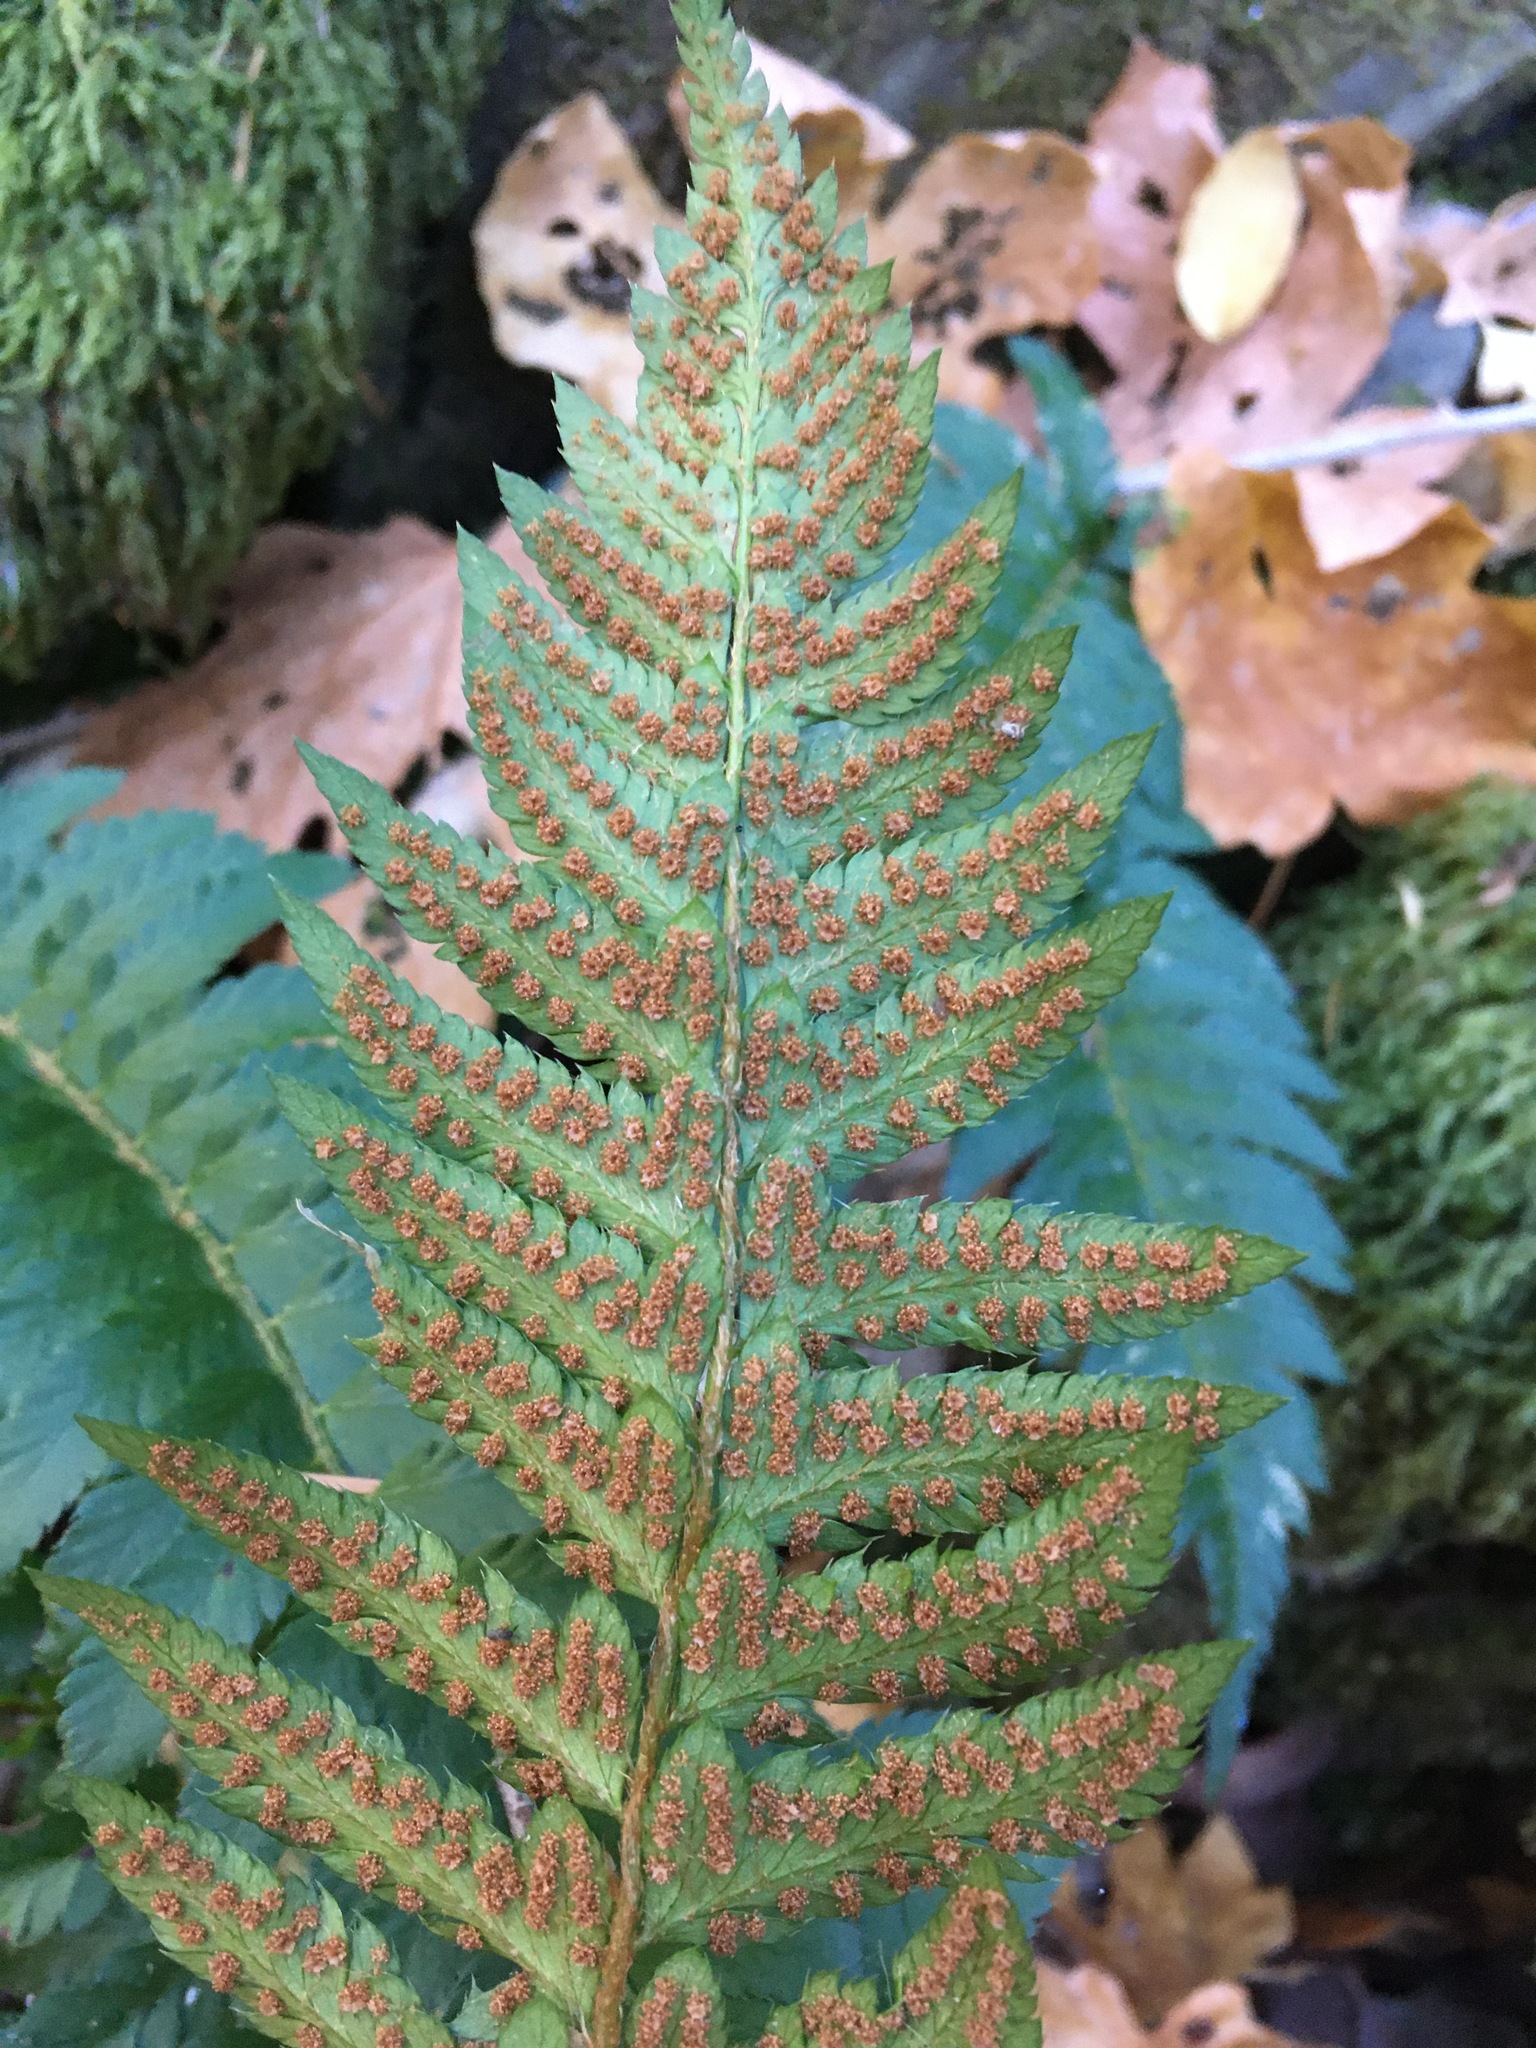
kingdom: Plantae
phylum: Tracheophyta
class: Polypodiopsida
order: Polypodiales
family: Dryopteridaceae
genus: Polystichum
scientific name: Polystichum californicum
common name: California sword fern
